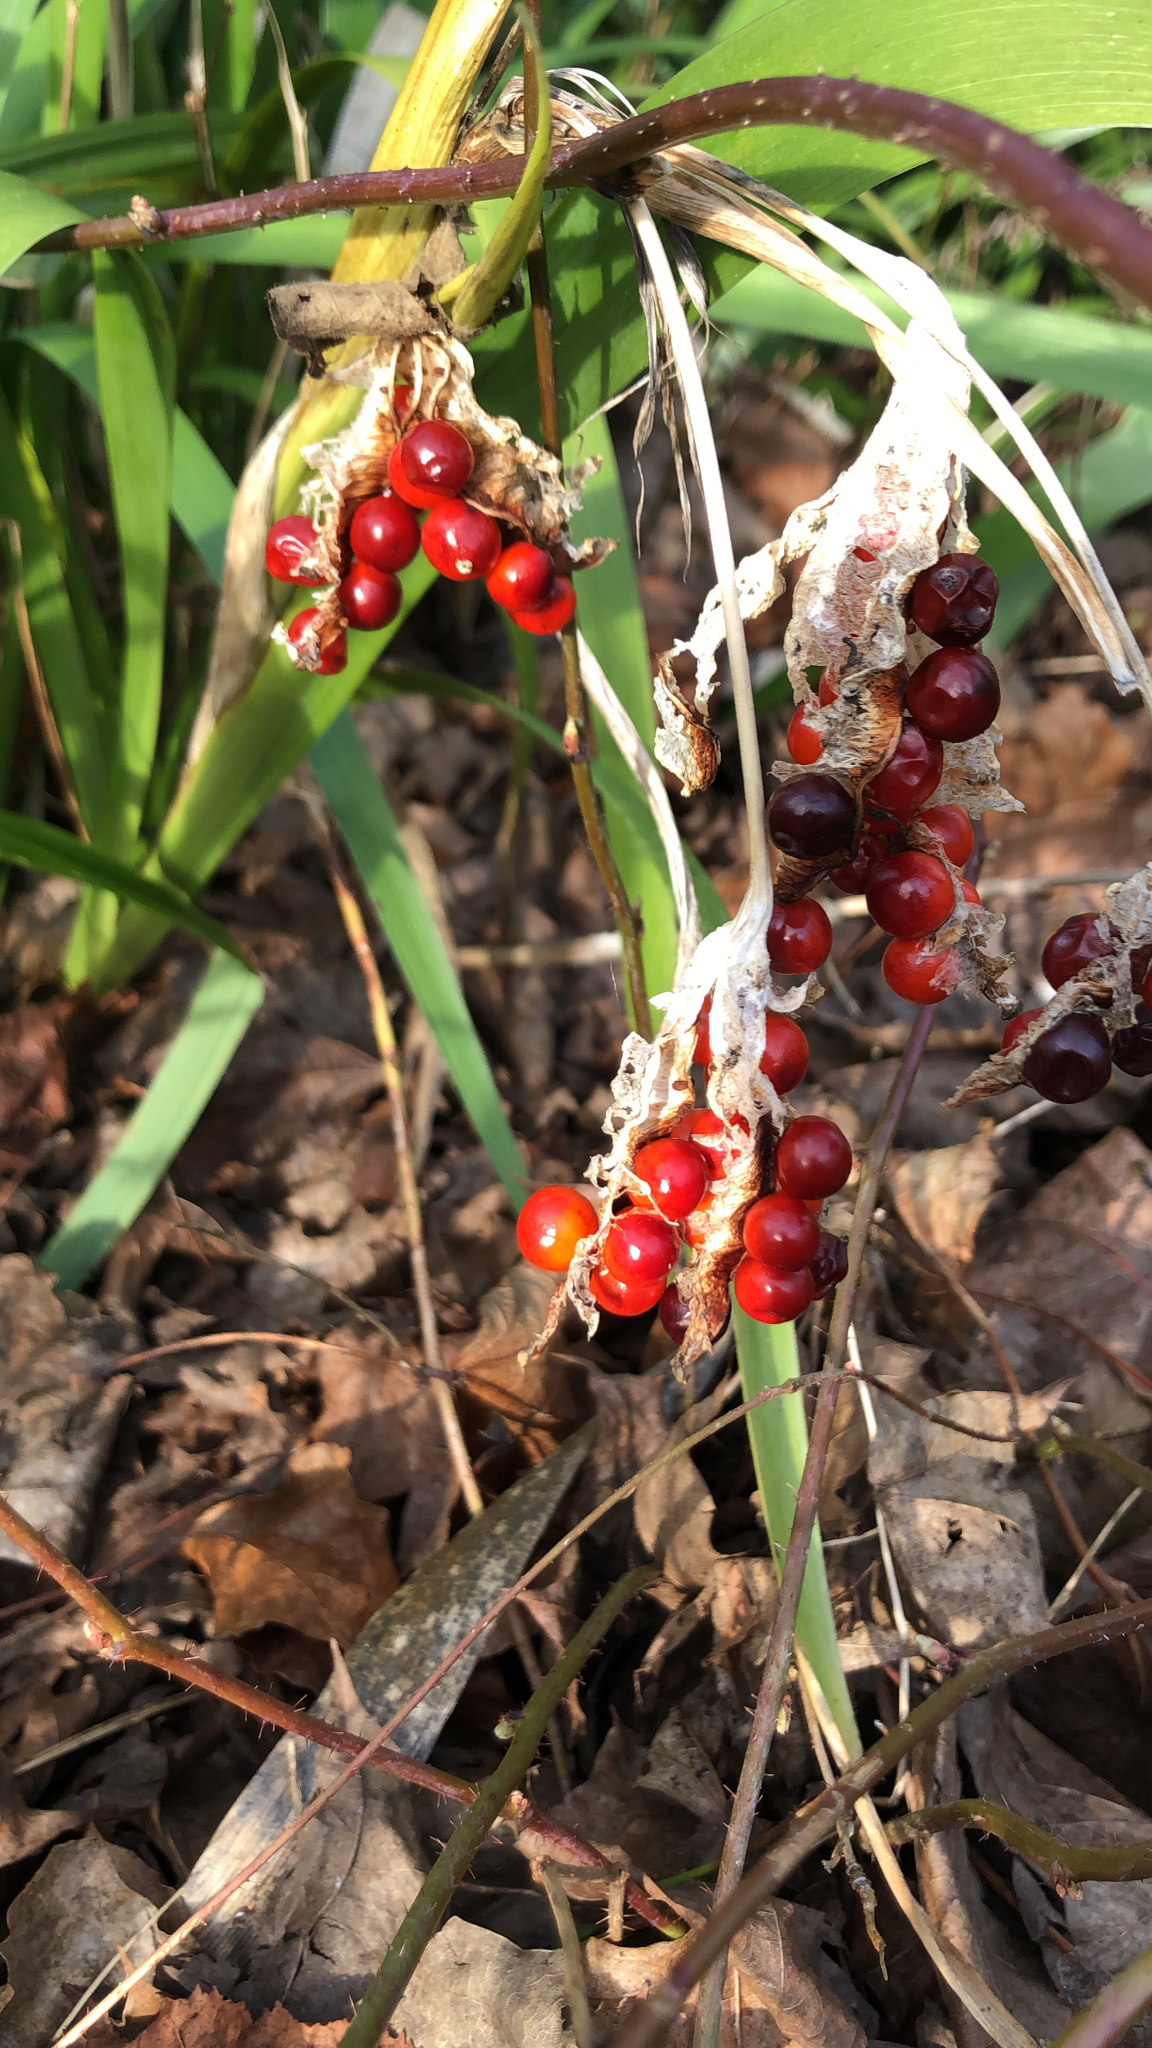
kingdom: Plantae
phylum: Tracheophyta
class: Liliopsida
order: Asparagales
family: Iridaceae
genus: Iris
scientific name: Iris foetidissima
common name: Stinking iris
